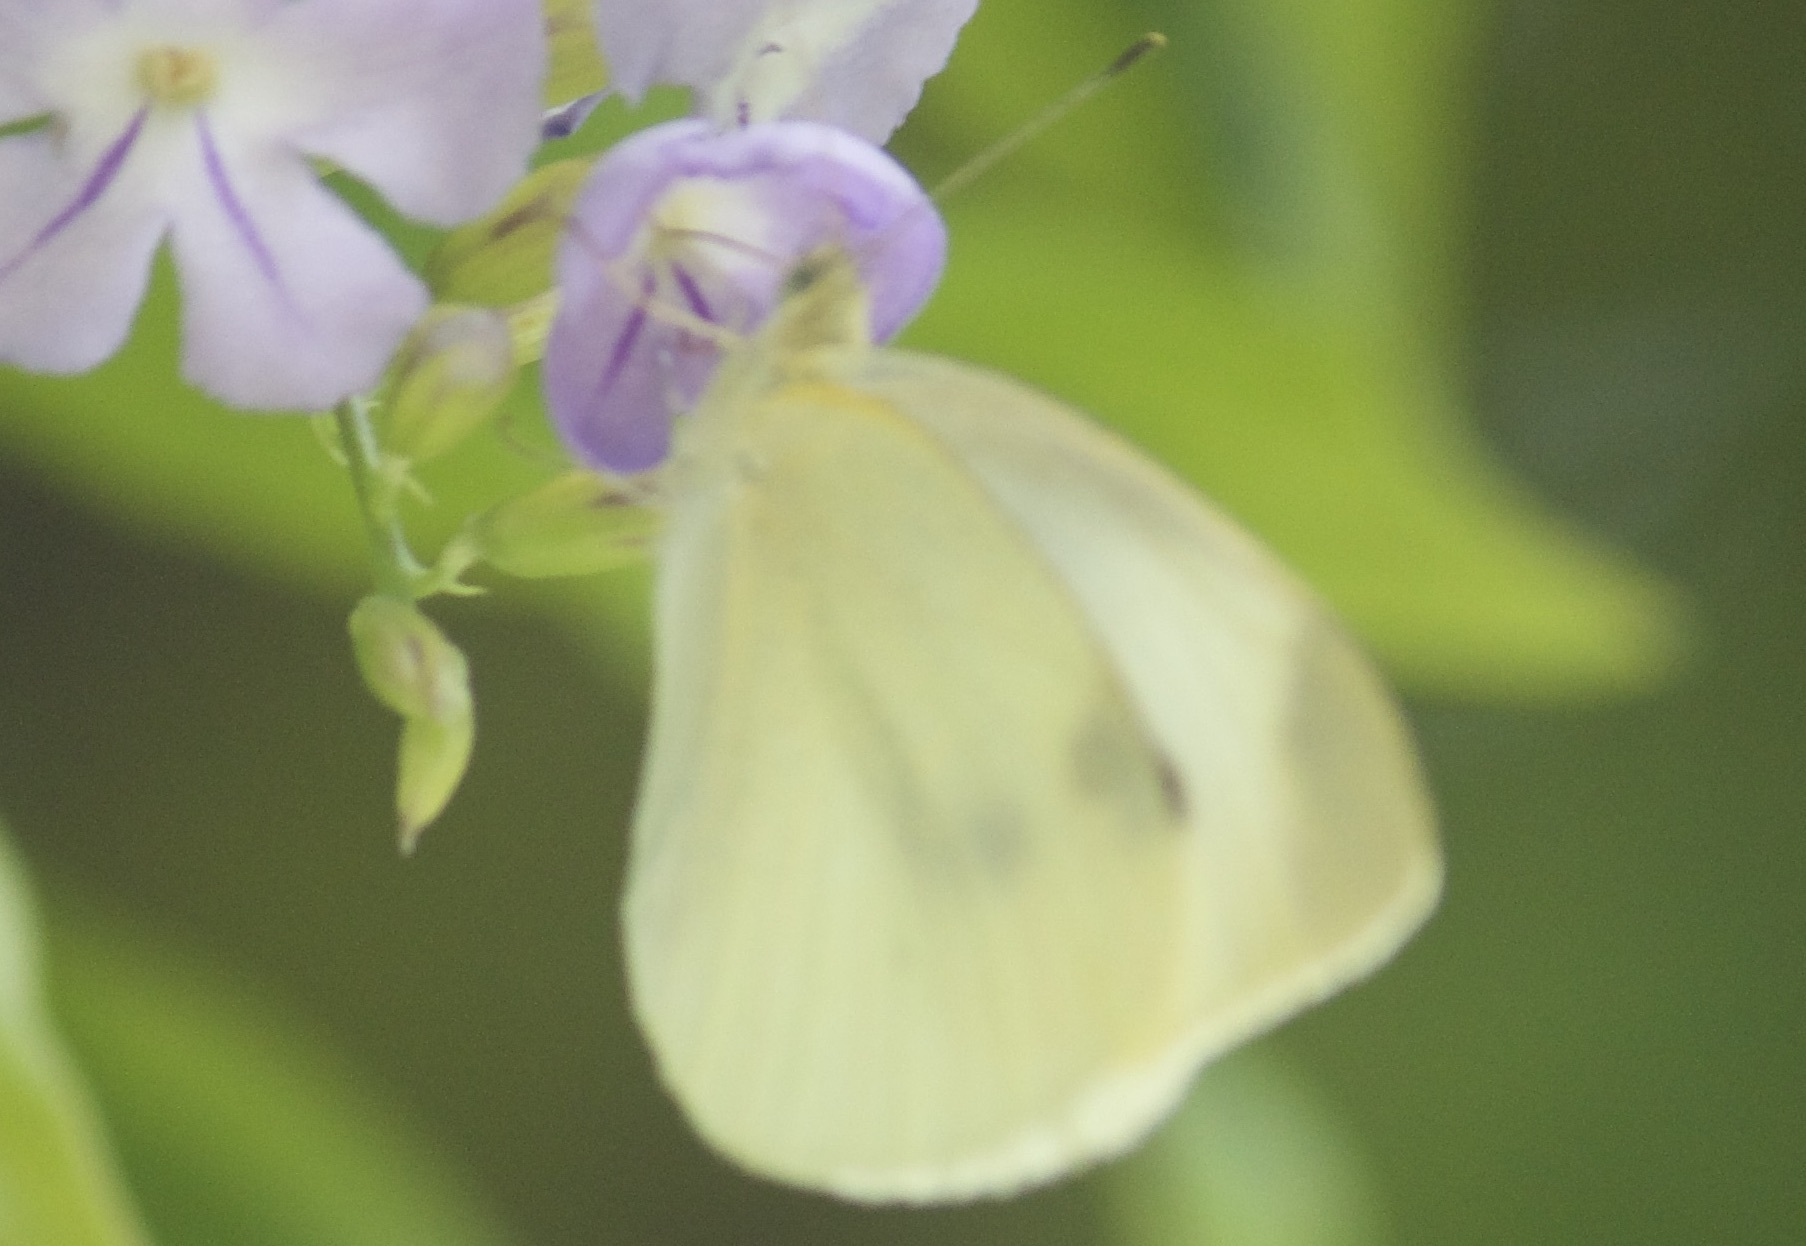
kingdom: Animalia
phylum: Arthropoda
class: Insecta
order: Lepidoptera
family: Pieridae
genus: Pieris
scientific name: Pieris rapae
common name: Small white
